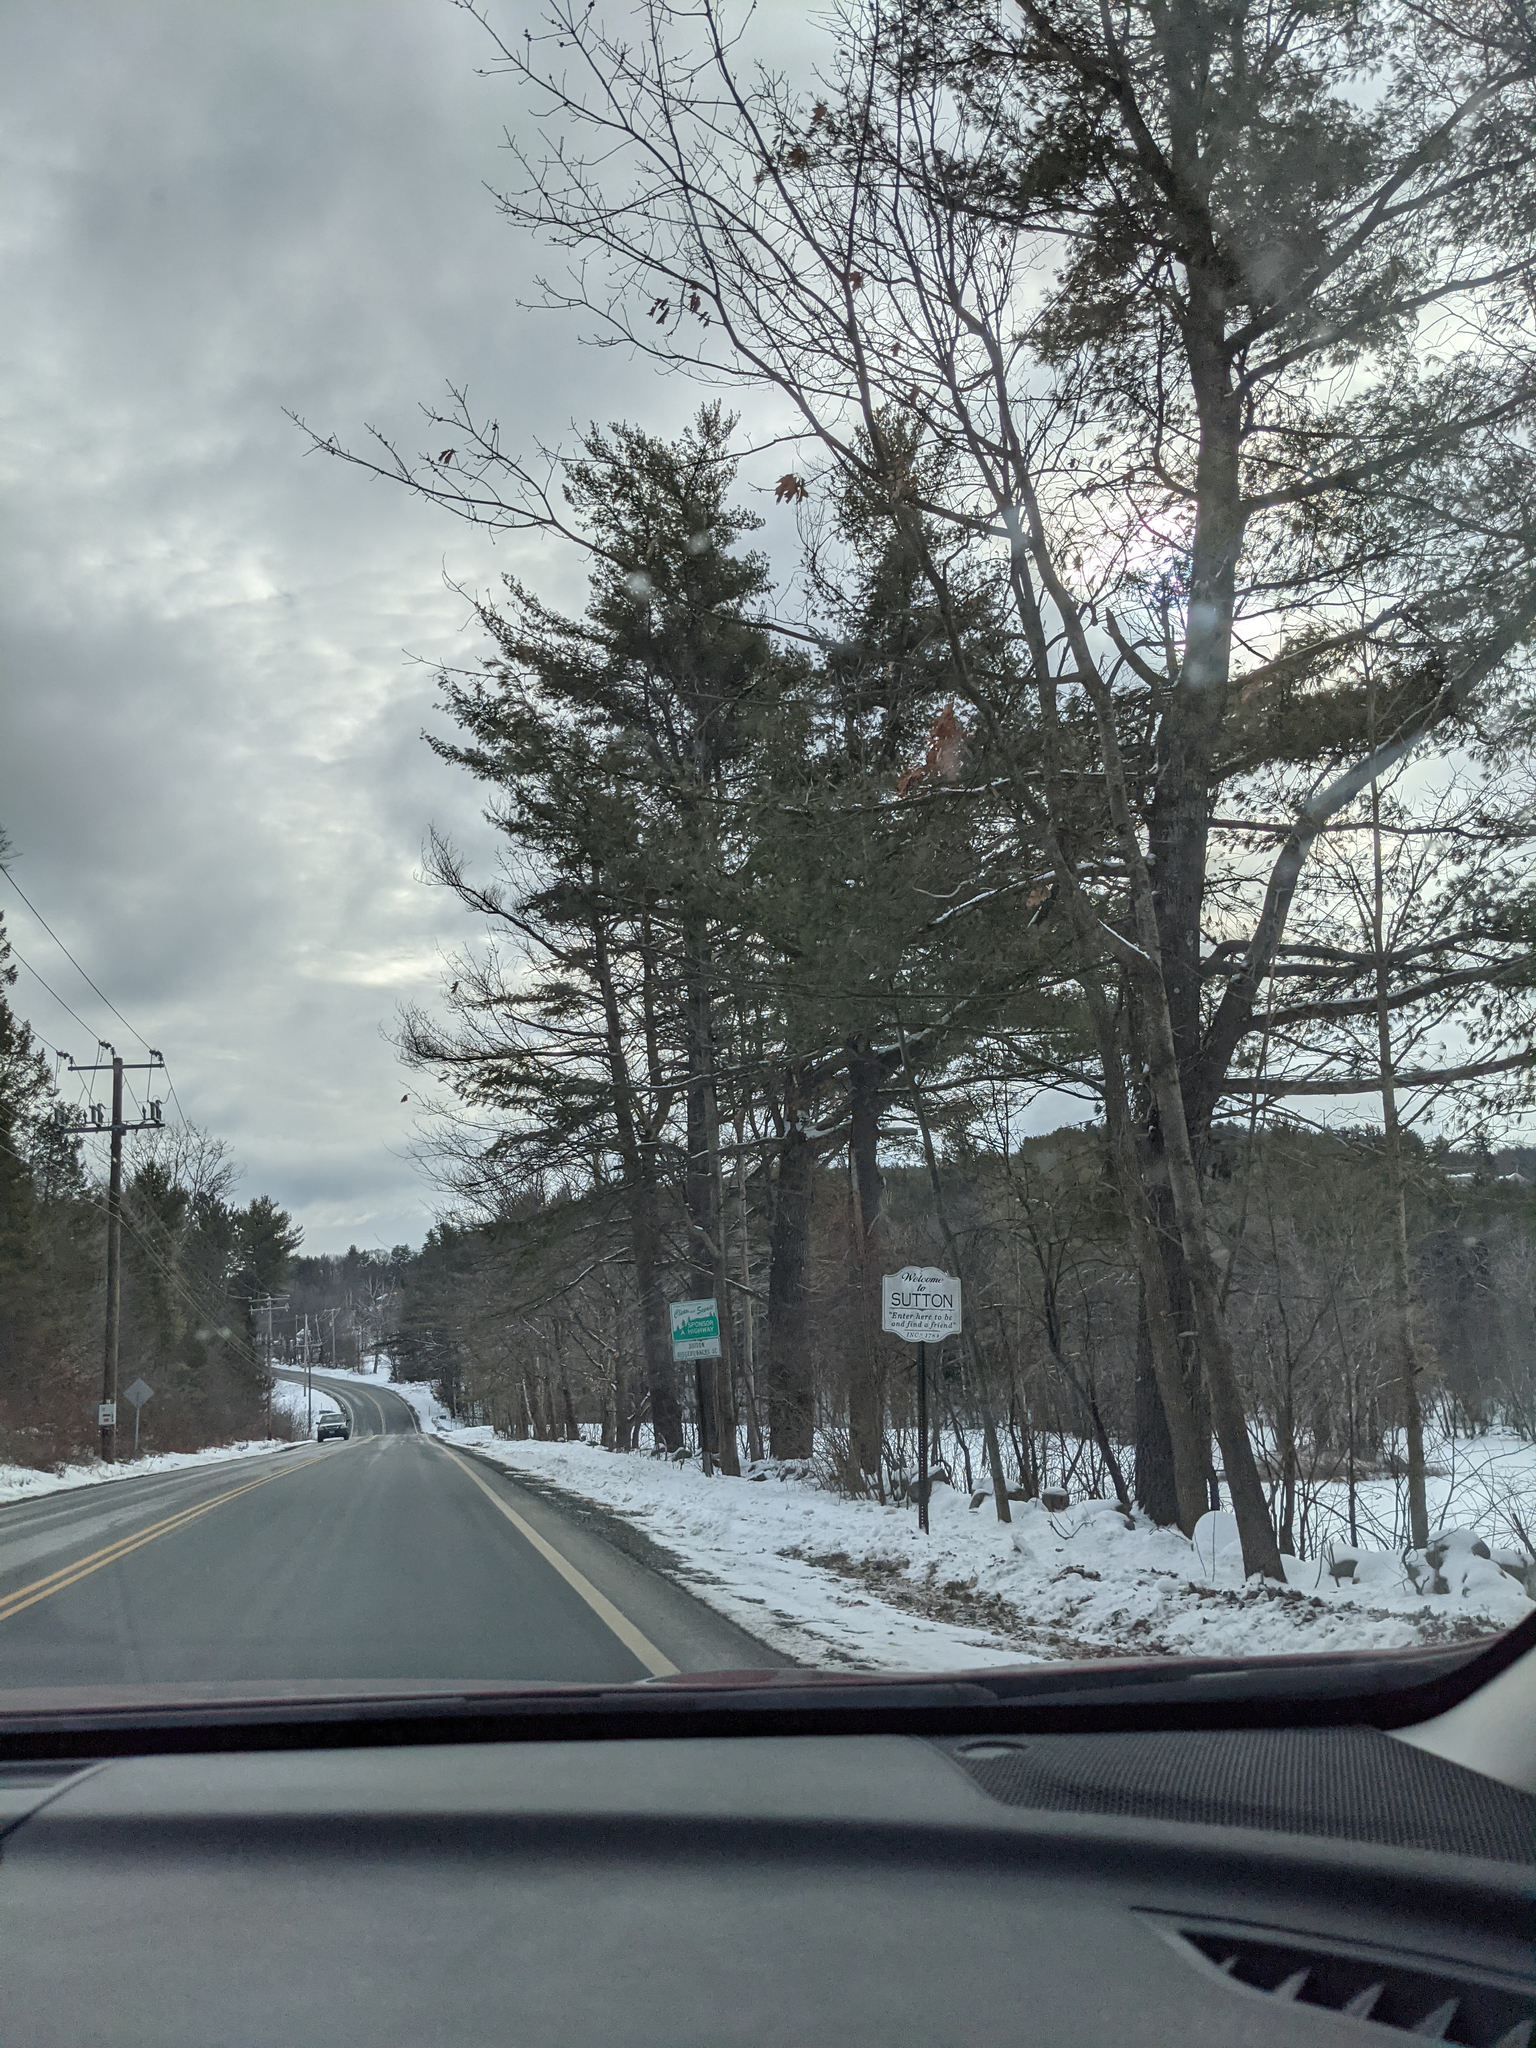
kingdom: Plantae
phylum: Tracheophyta
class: Pinopsida
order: Pinales
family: Pinaceae
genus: Pinus
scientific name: Pinus strobus
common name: Weymouth pine
